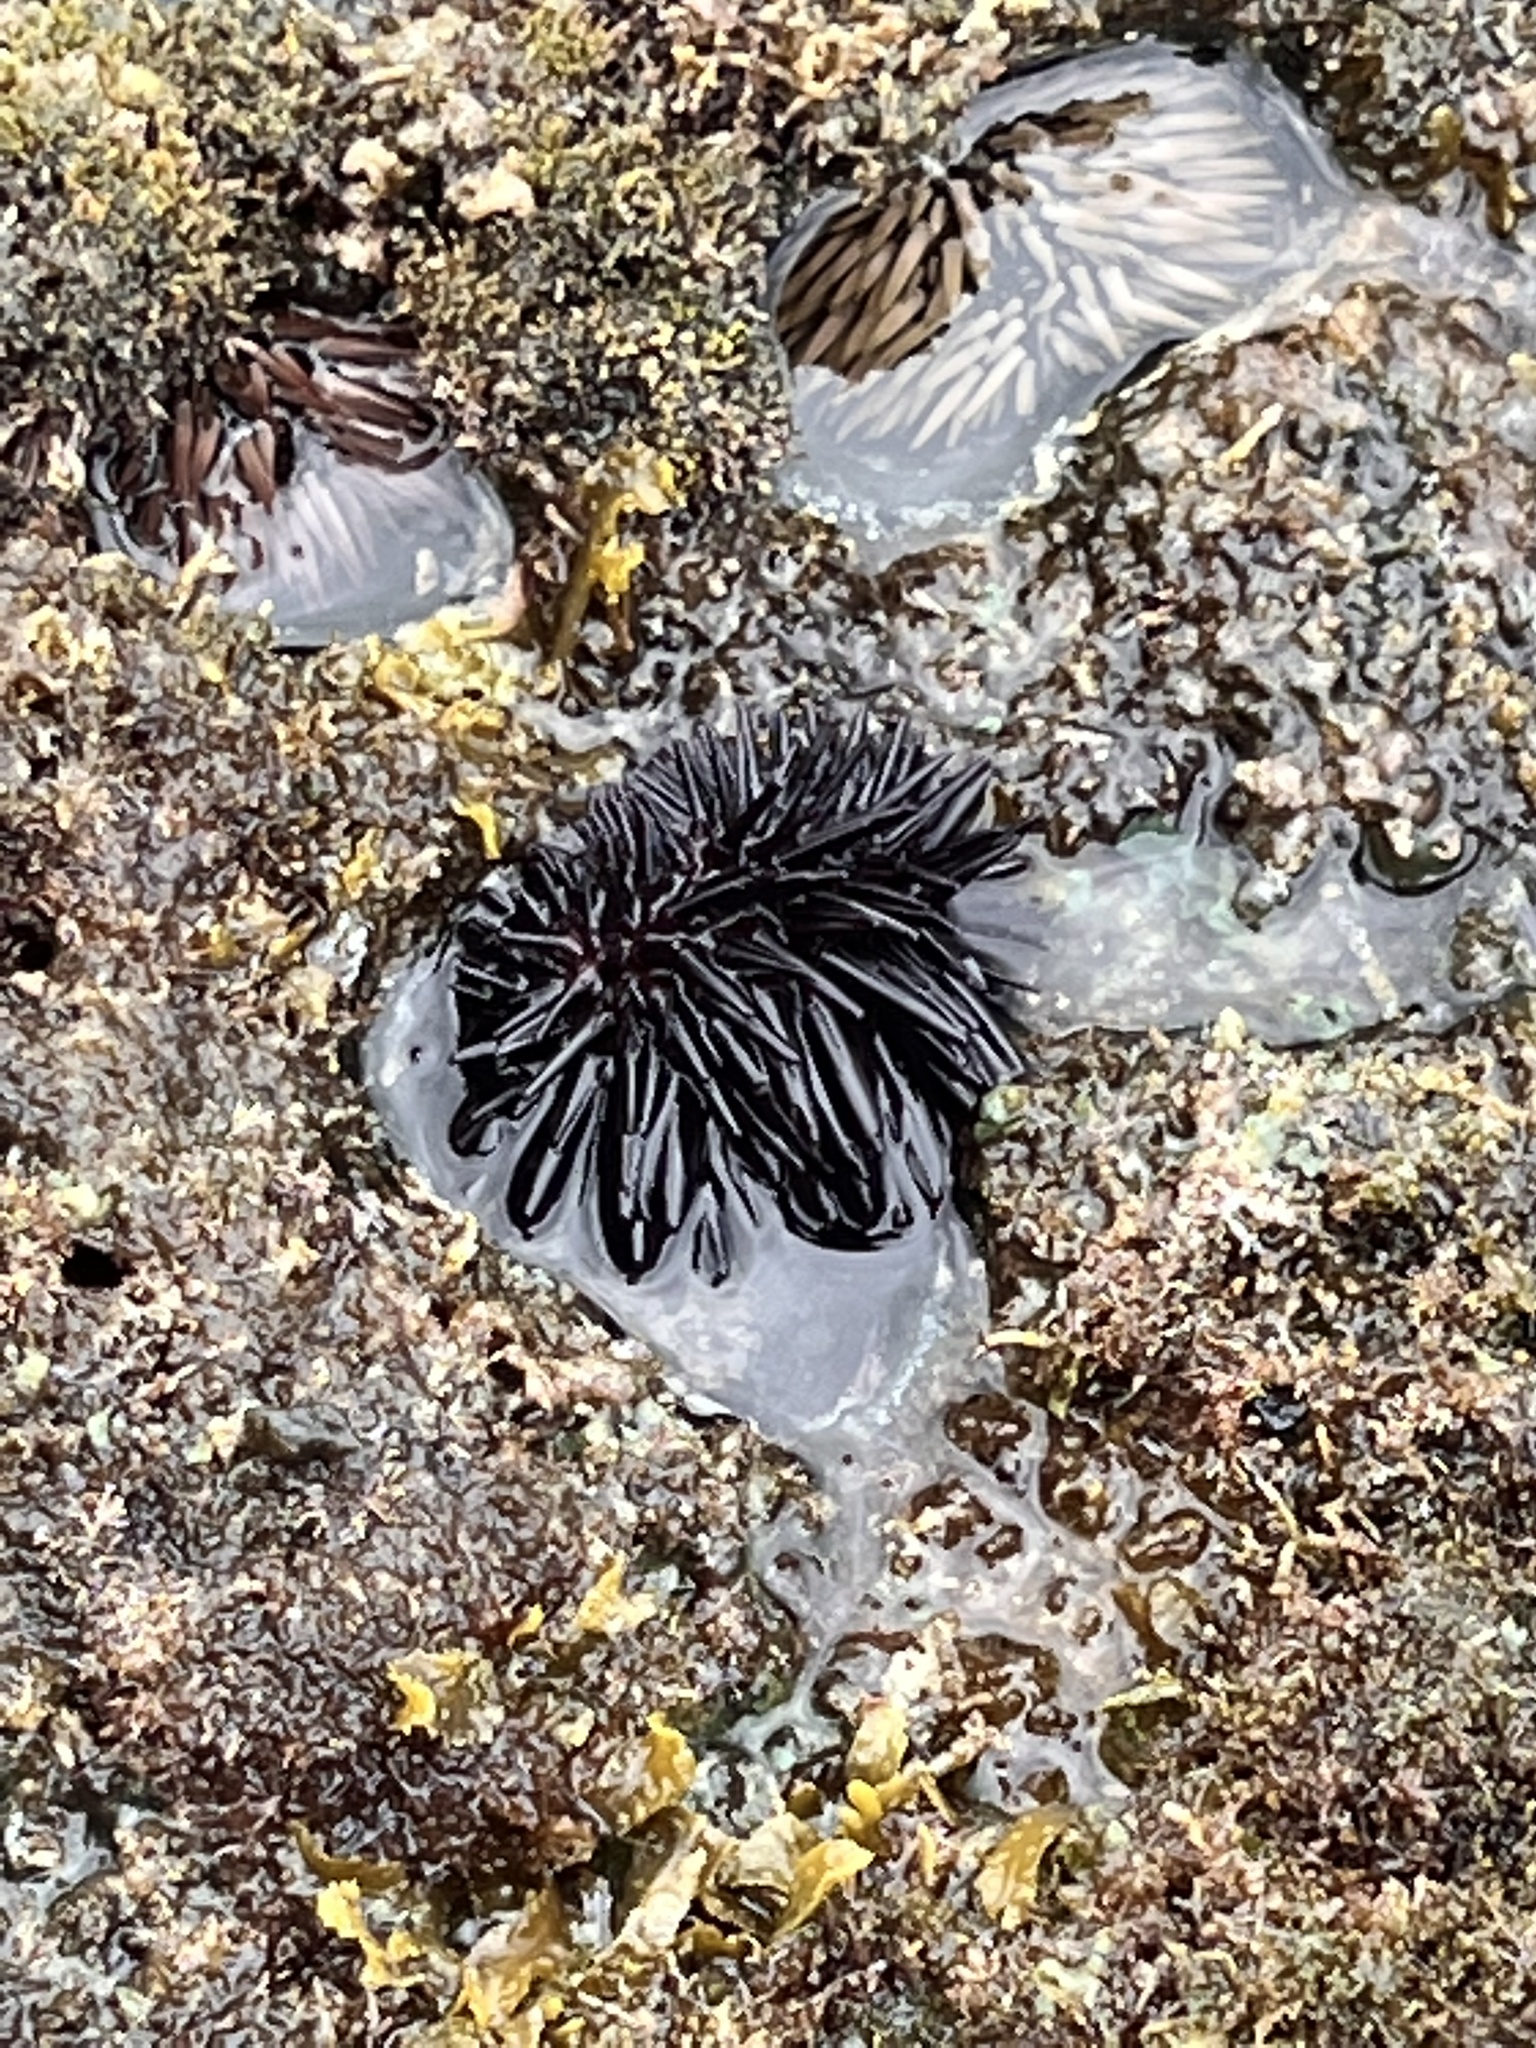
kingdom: Animalia
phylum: Echinodermata
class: Echinoidea
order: Camarodonta
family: Echinometridae
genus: Echinometra
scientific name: Echinometra oblonga
